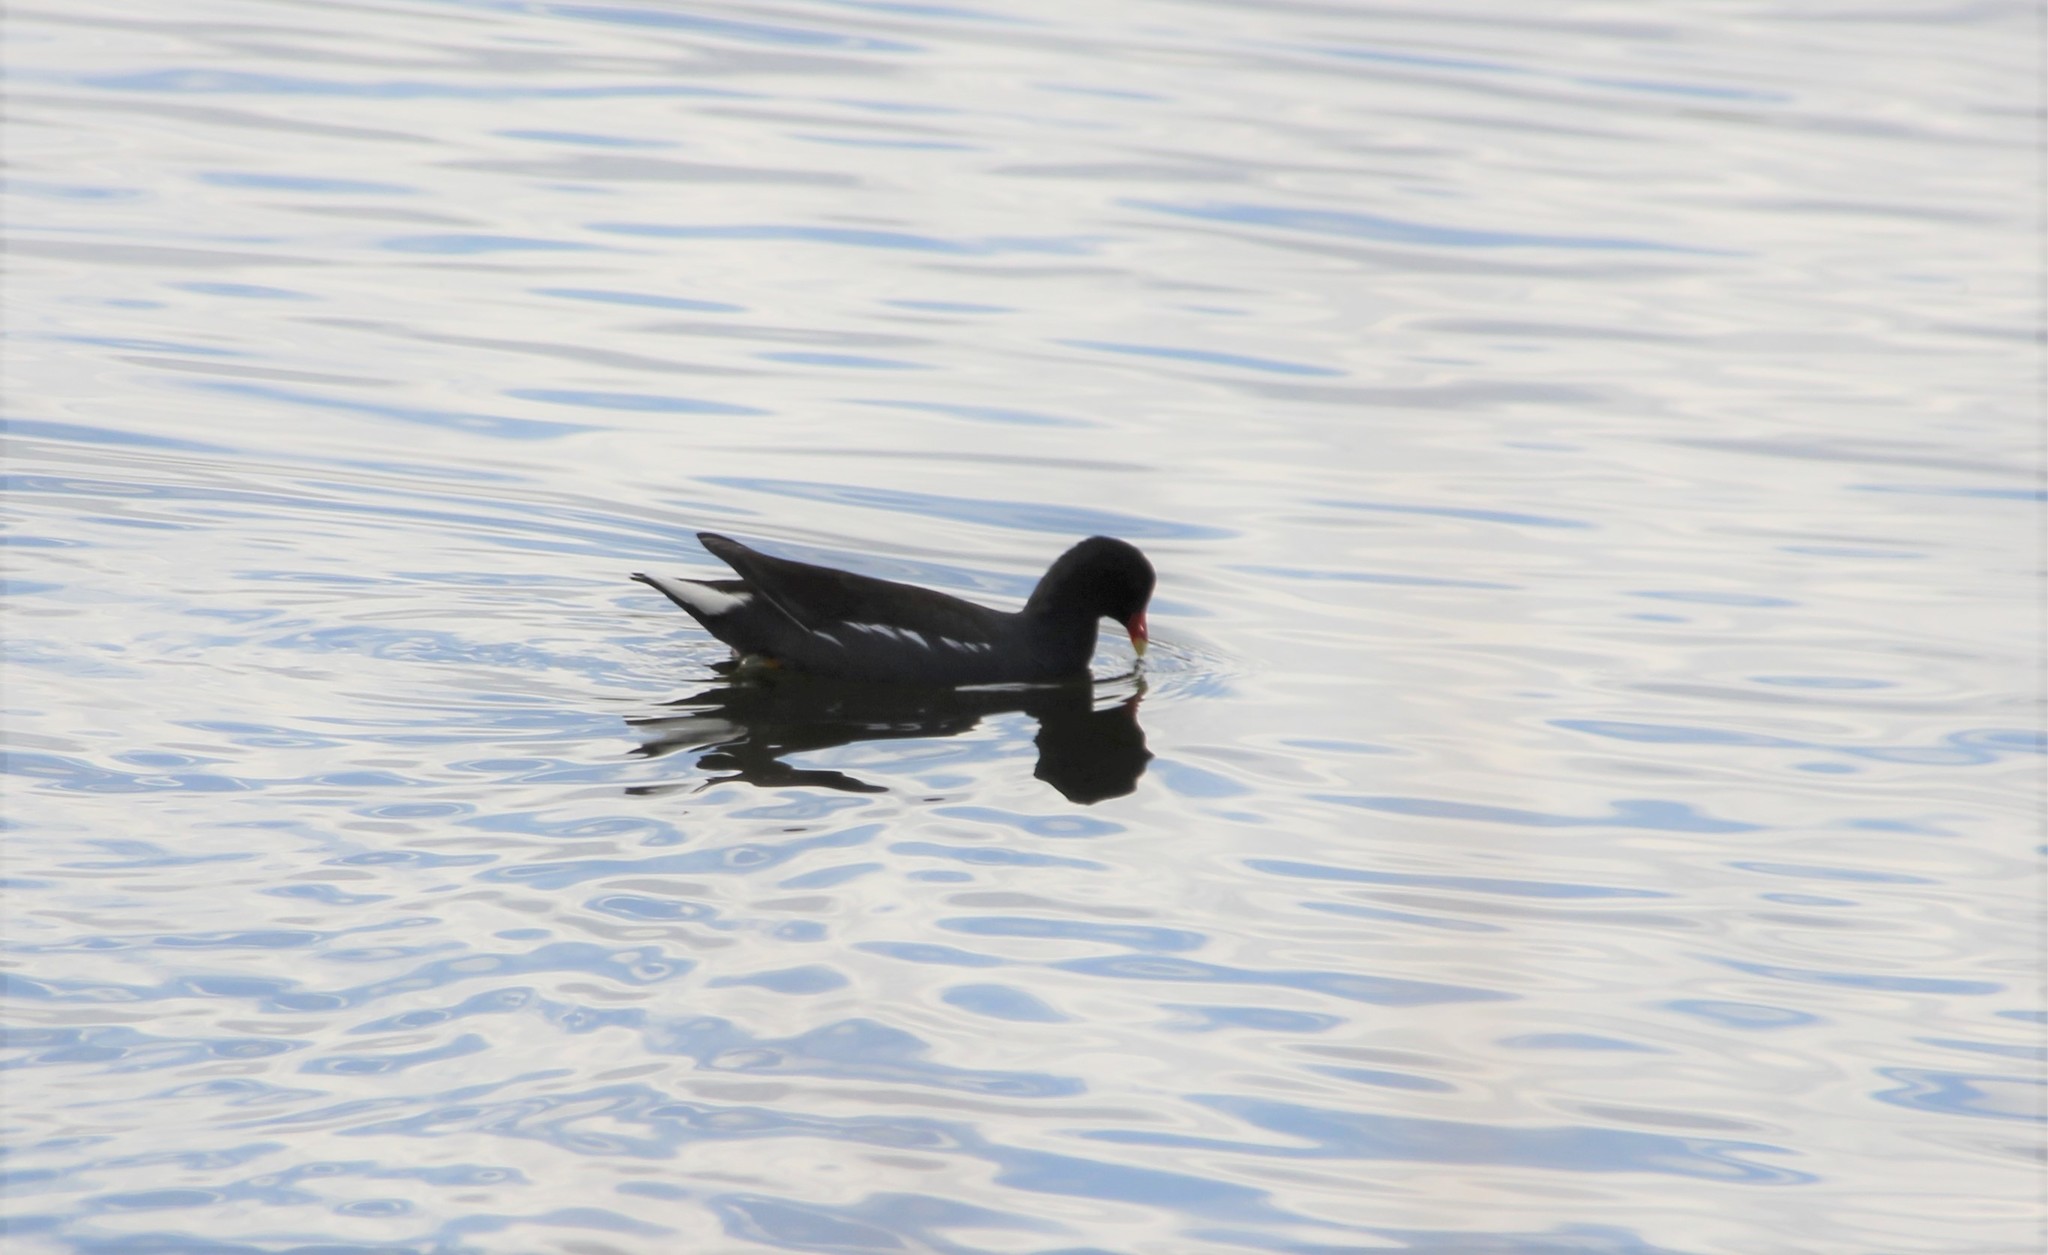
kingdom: Animalia
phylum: Chordata
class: Aves
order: Gruiformes
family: Rallidae
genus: Gallinula
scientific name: Gallinula chloropus
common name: Common moorhen
